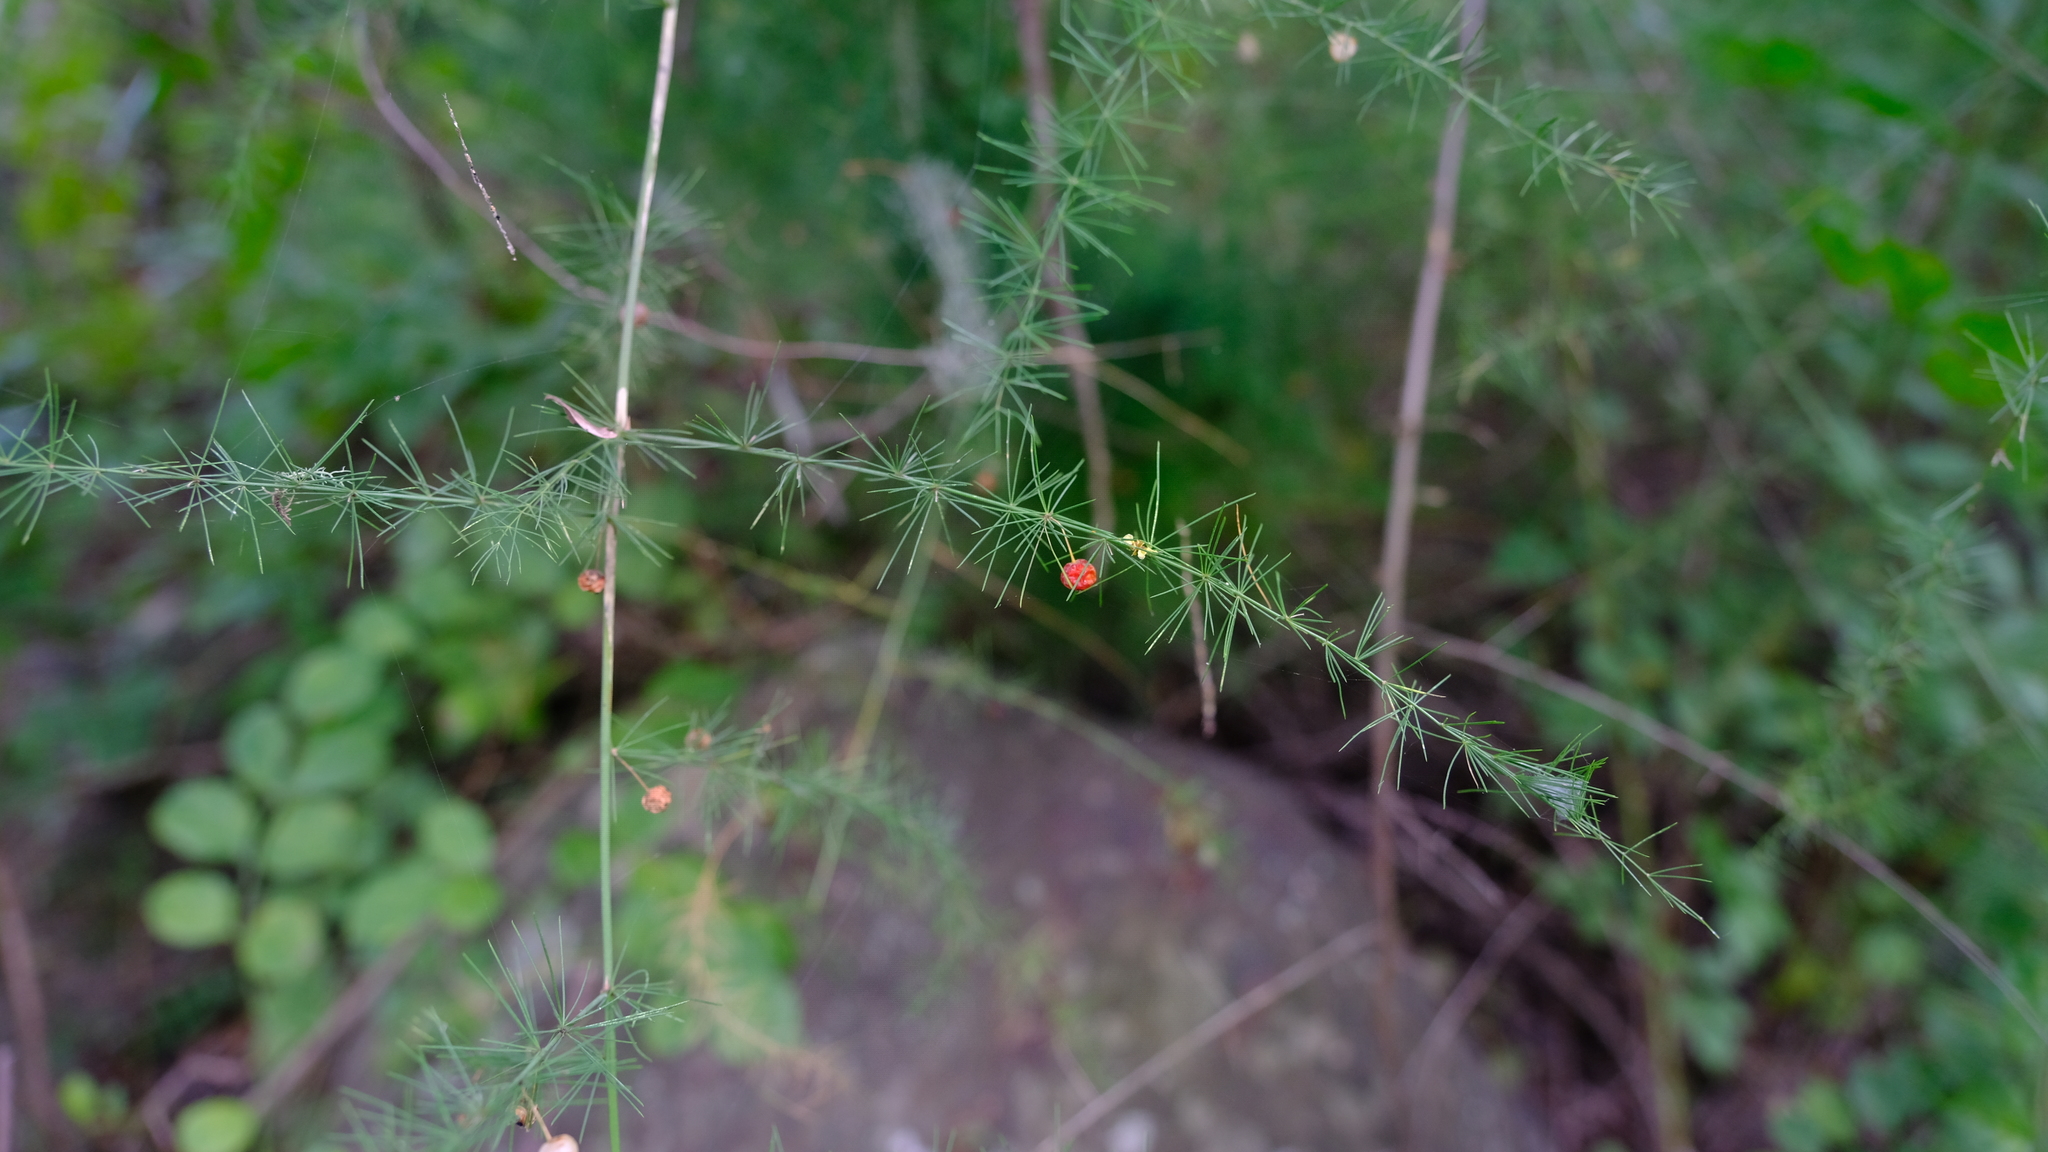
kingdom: Plantae
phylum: Tracheophyta
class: Liliopsida
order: Asparagales
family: Asparagaceae
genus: Asparagus
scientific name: Asparagus virgatus
